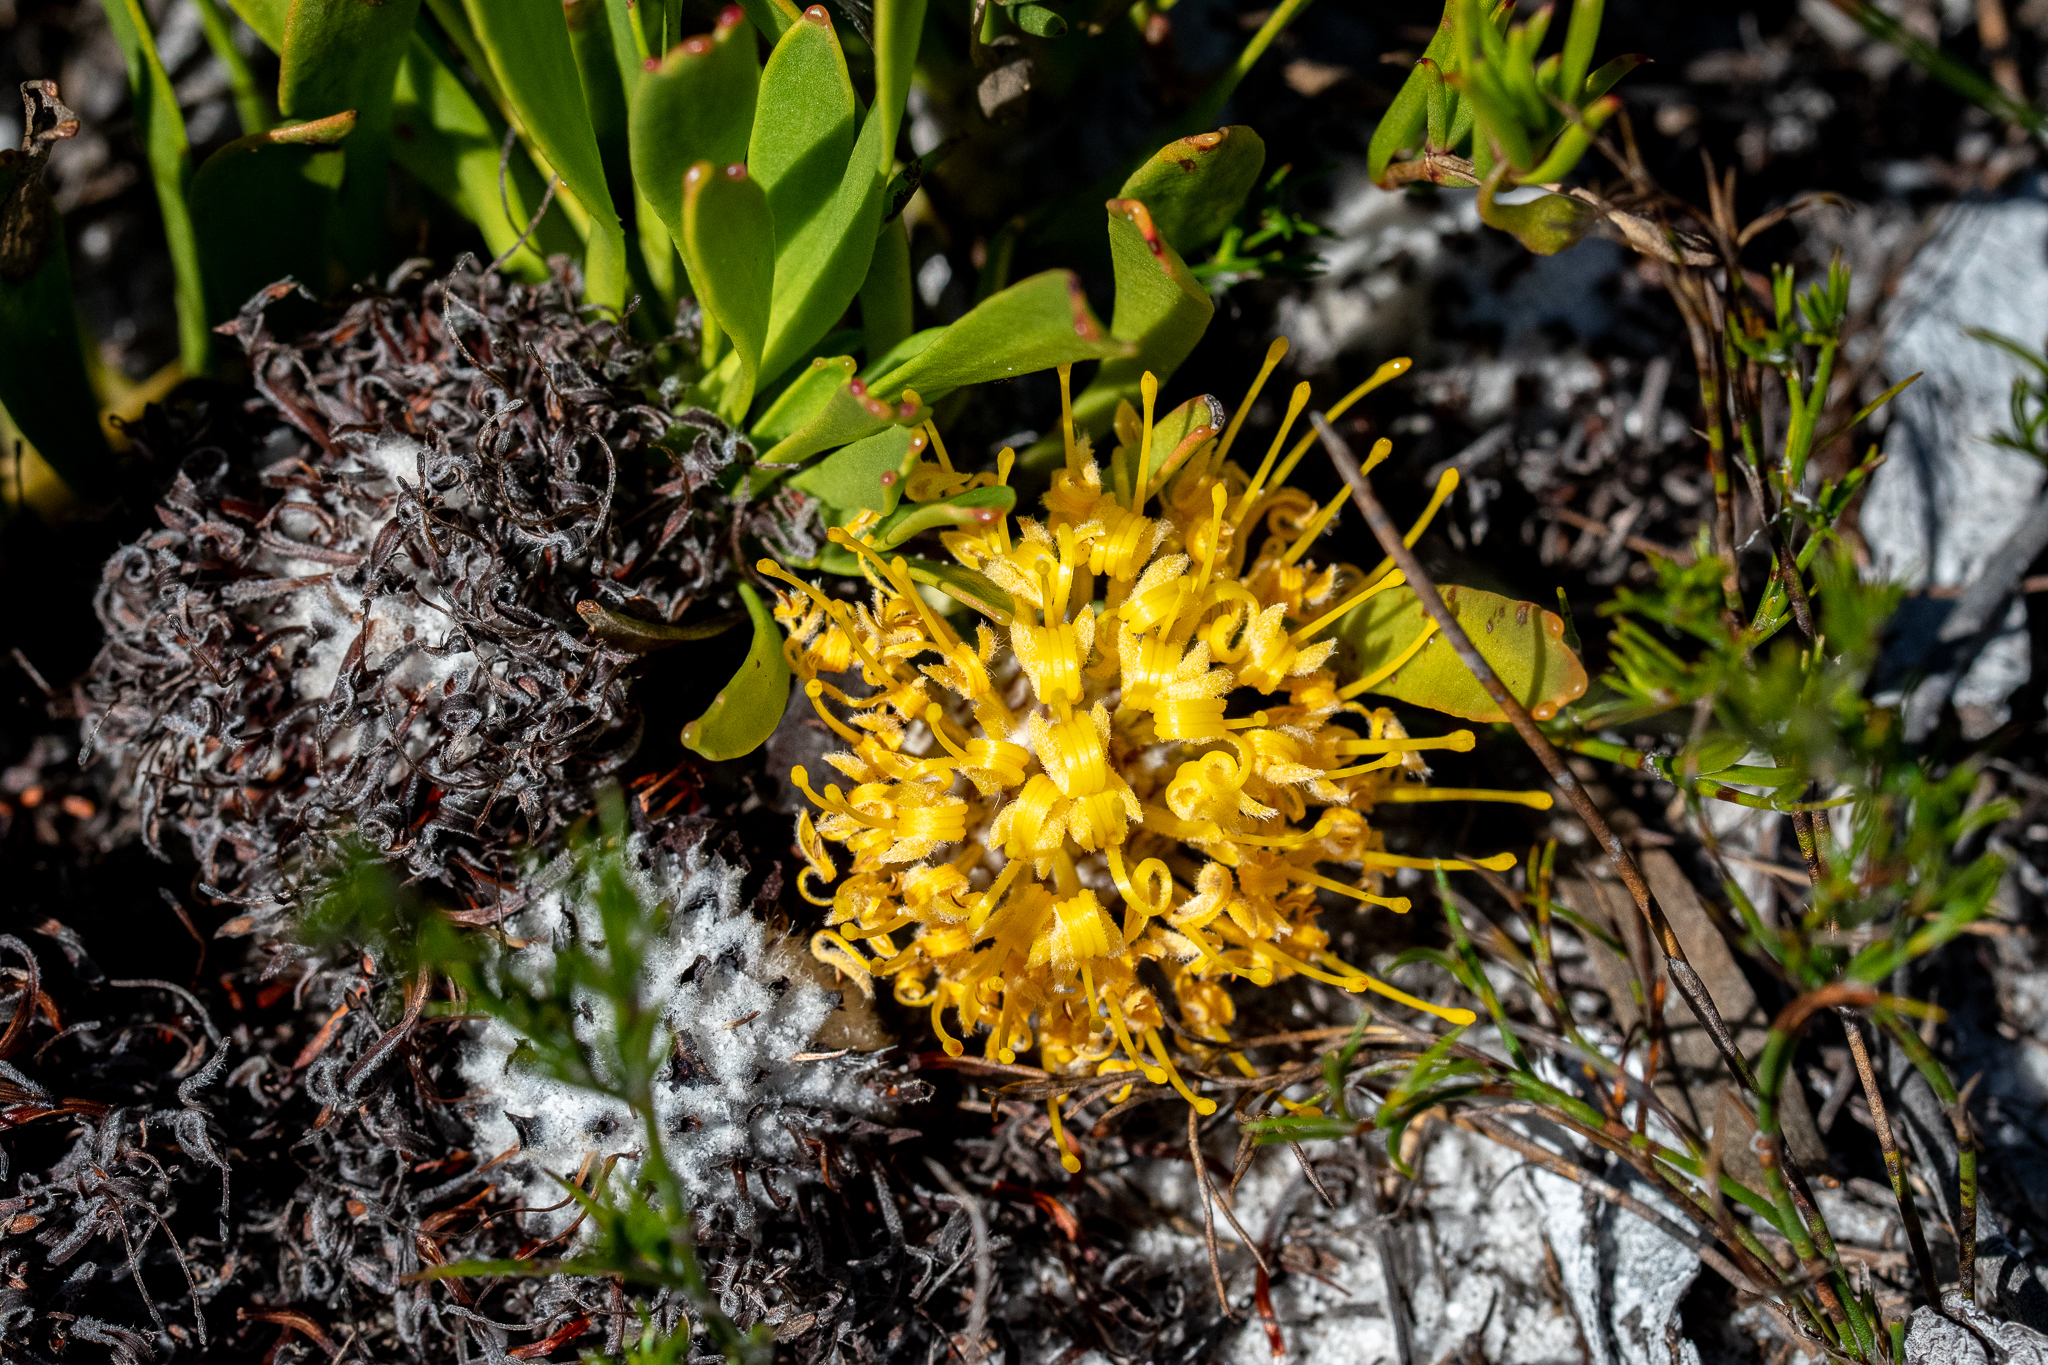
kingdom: Plantae
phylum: Tracheophyta
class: Magnoliopsida
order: Proteales
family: Proteaceae
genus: Leucospermum
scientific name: Leucospermum hypophyllocarpodendron
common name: Snakestem pincushion
